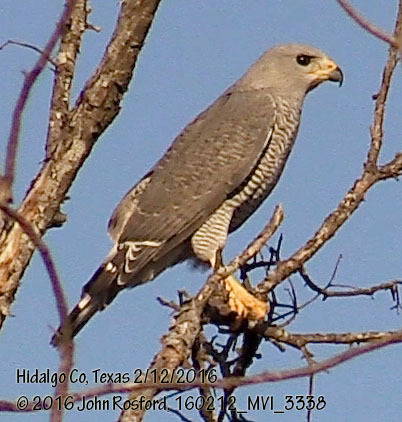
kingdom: Animalia
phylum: Chordata
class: Aves
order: Accipitriformes
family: Accipitridae
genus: Buteo
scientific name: Buteo nitidus
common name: Grey-lined hawk
